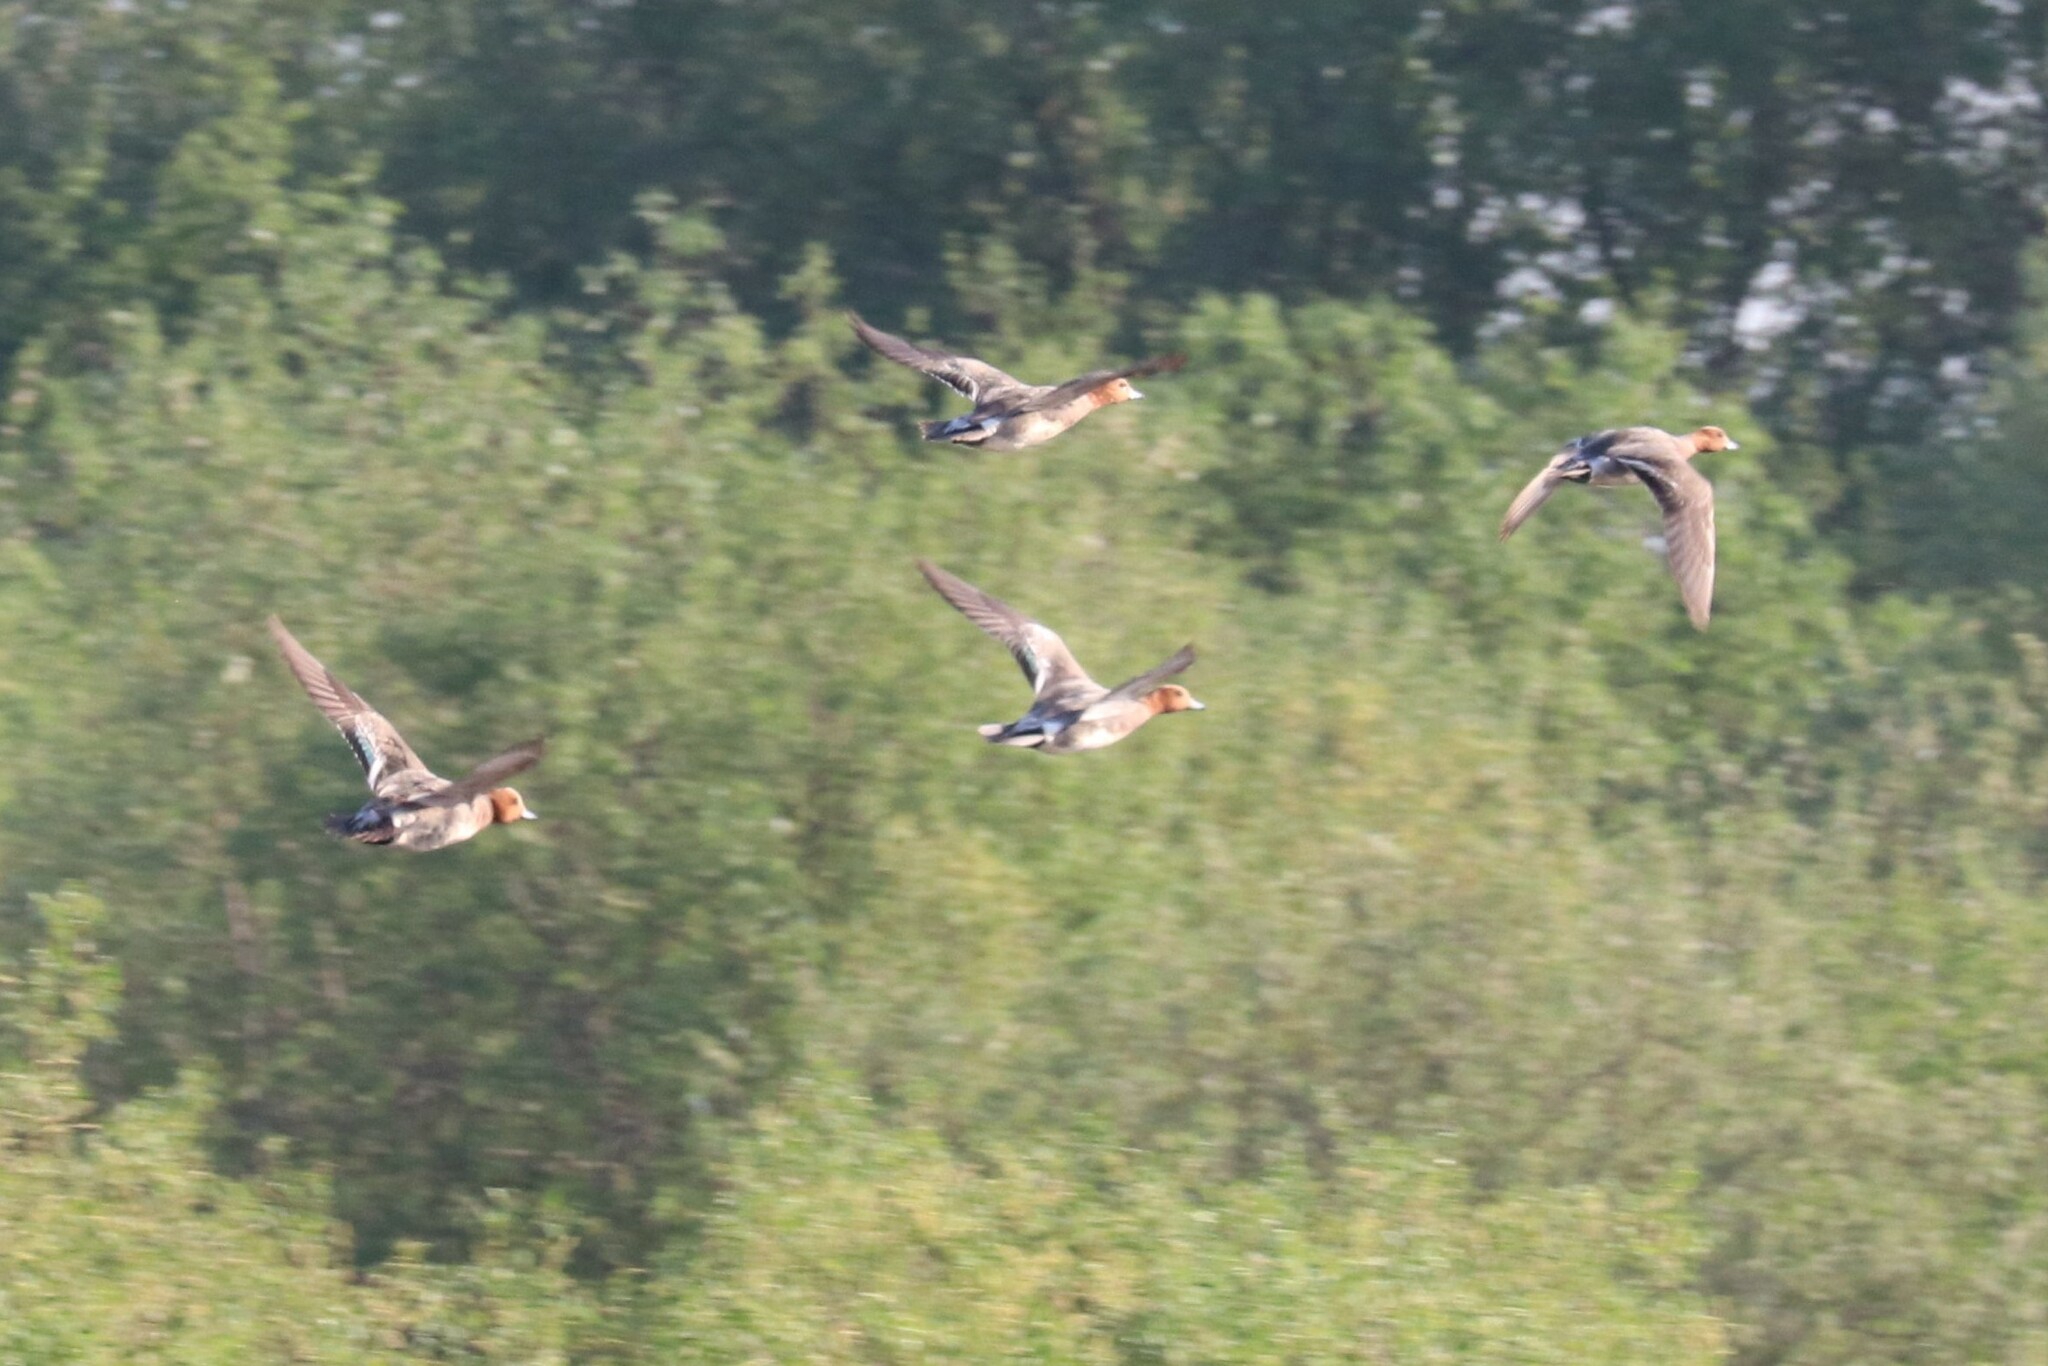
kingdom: Animalia
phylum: Chordata
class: Aves
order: Anseriformes
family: Anatidae
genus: Mareca
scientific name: Mareca penelope
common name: Eurasian wigeon
